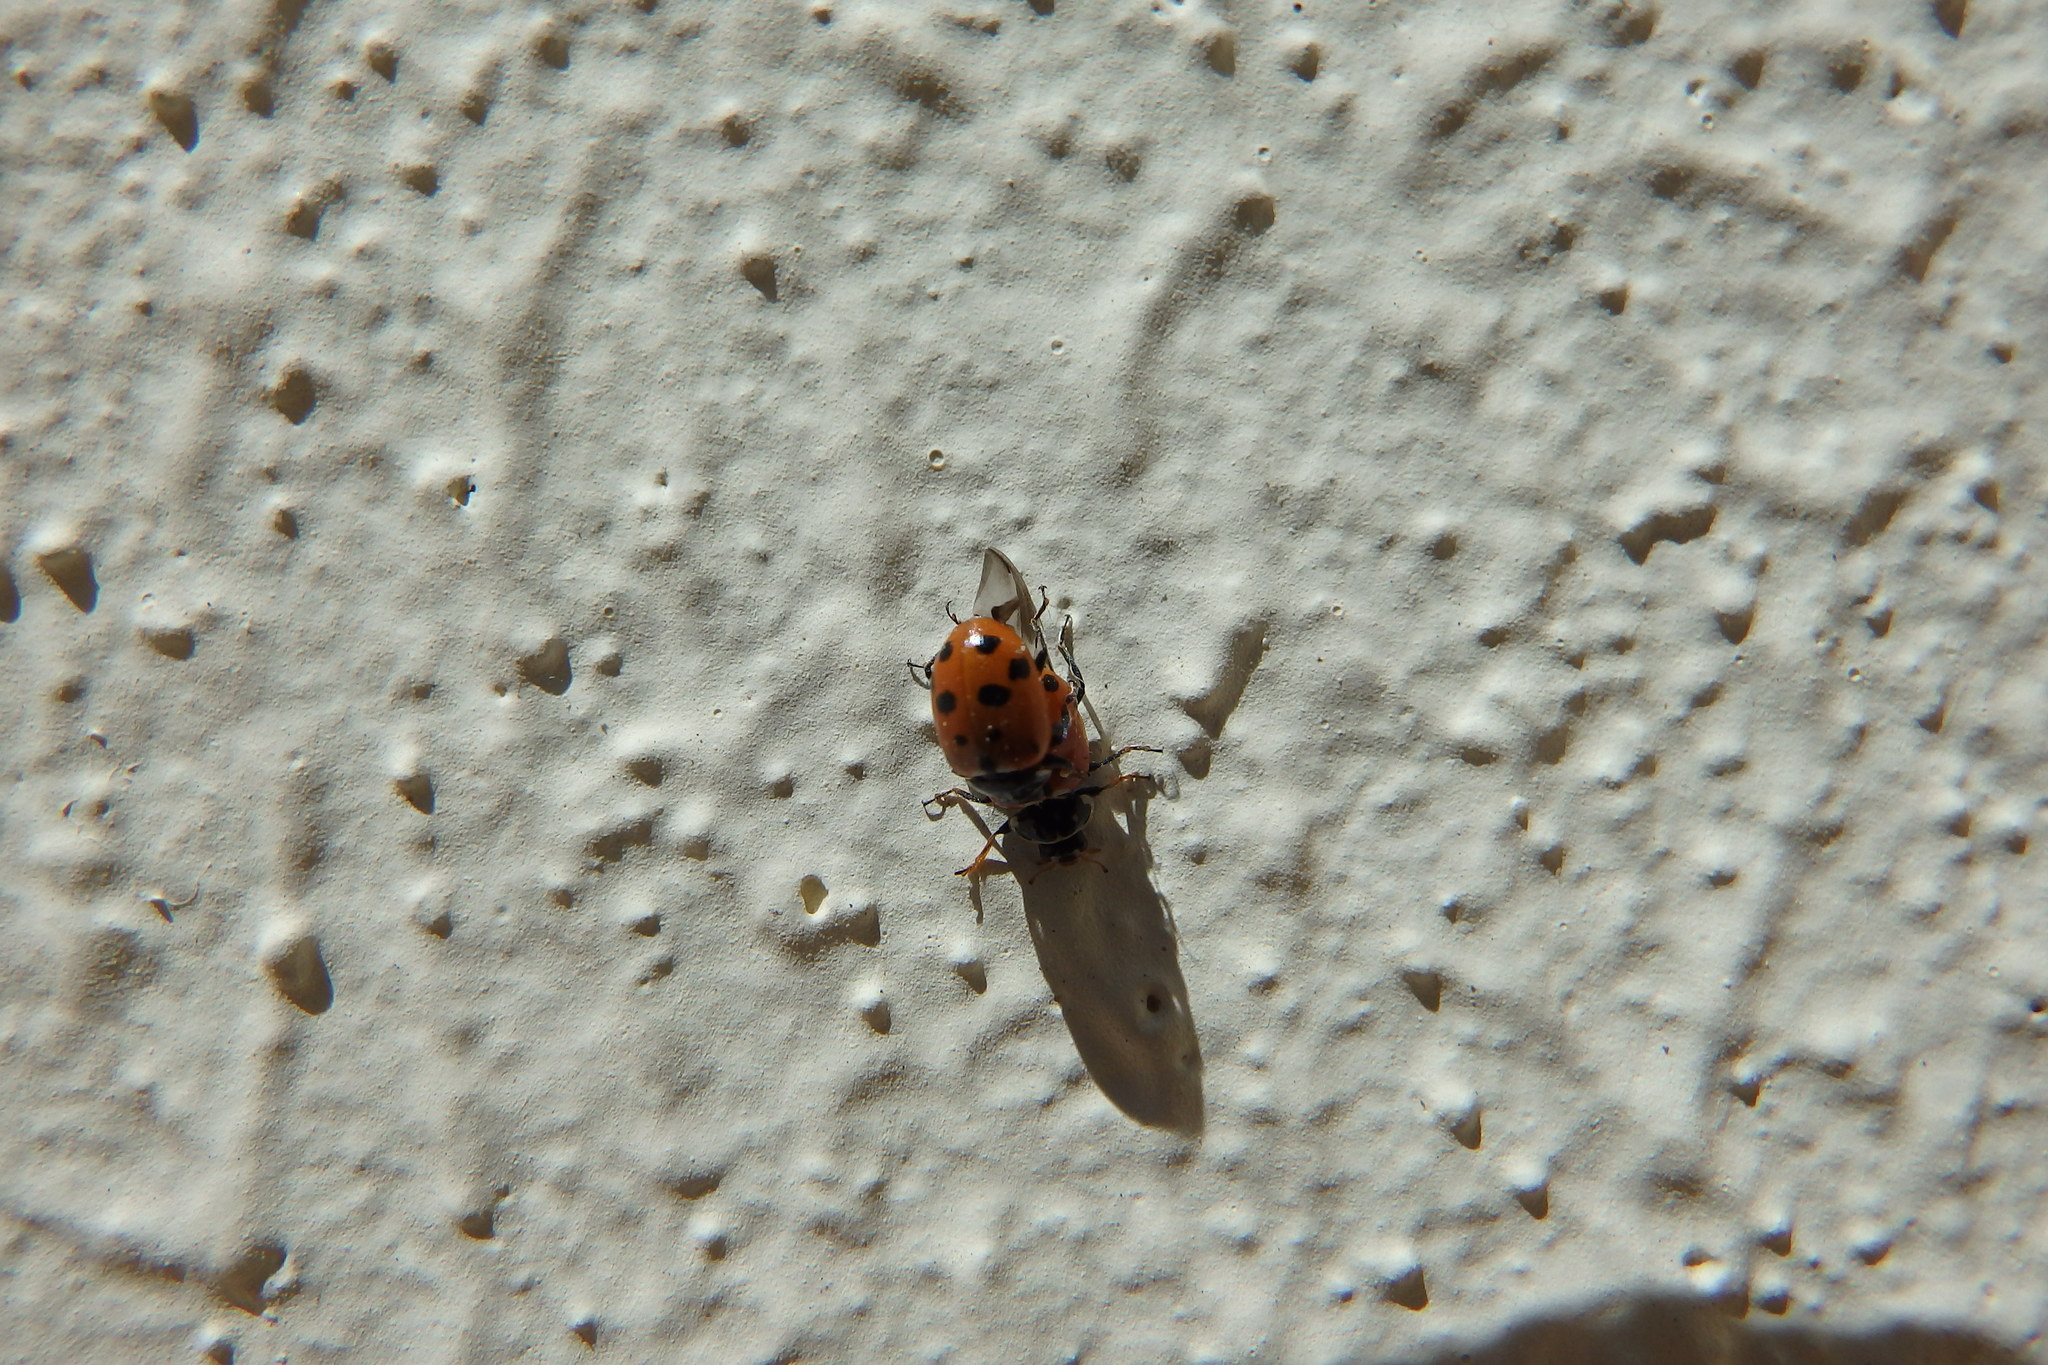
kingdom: Animalia
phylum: Arthropoda
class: Insecta
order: Coleoptera
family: Coccinellidae
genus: Hippodamia
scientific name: Hippodamia variegata
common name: Ladybird beetle
